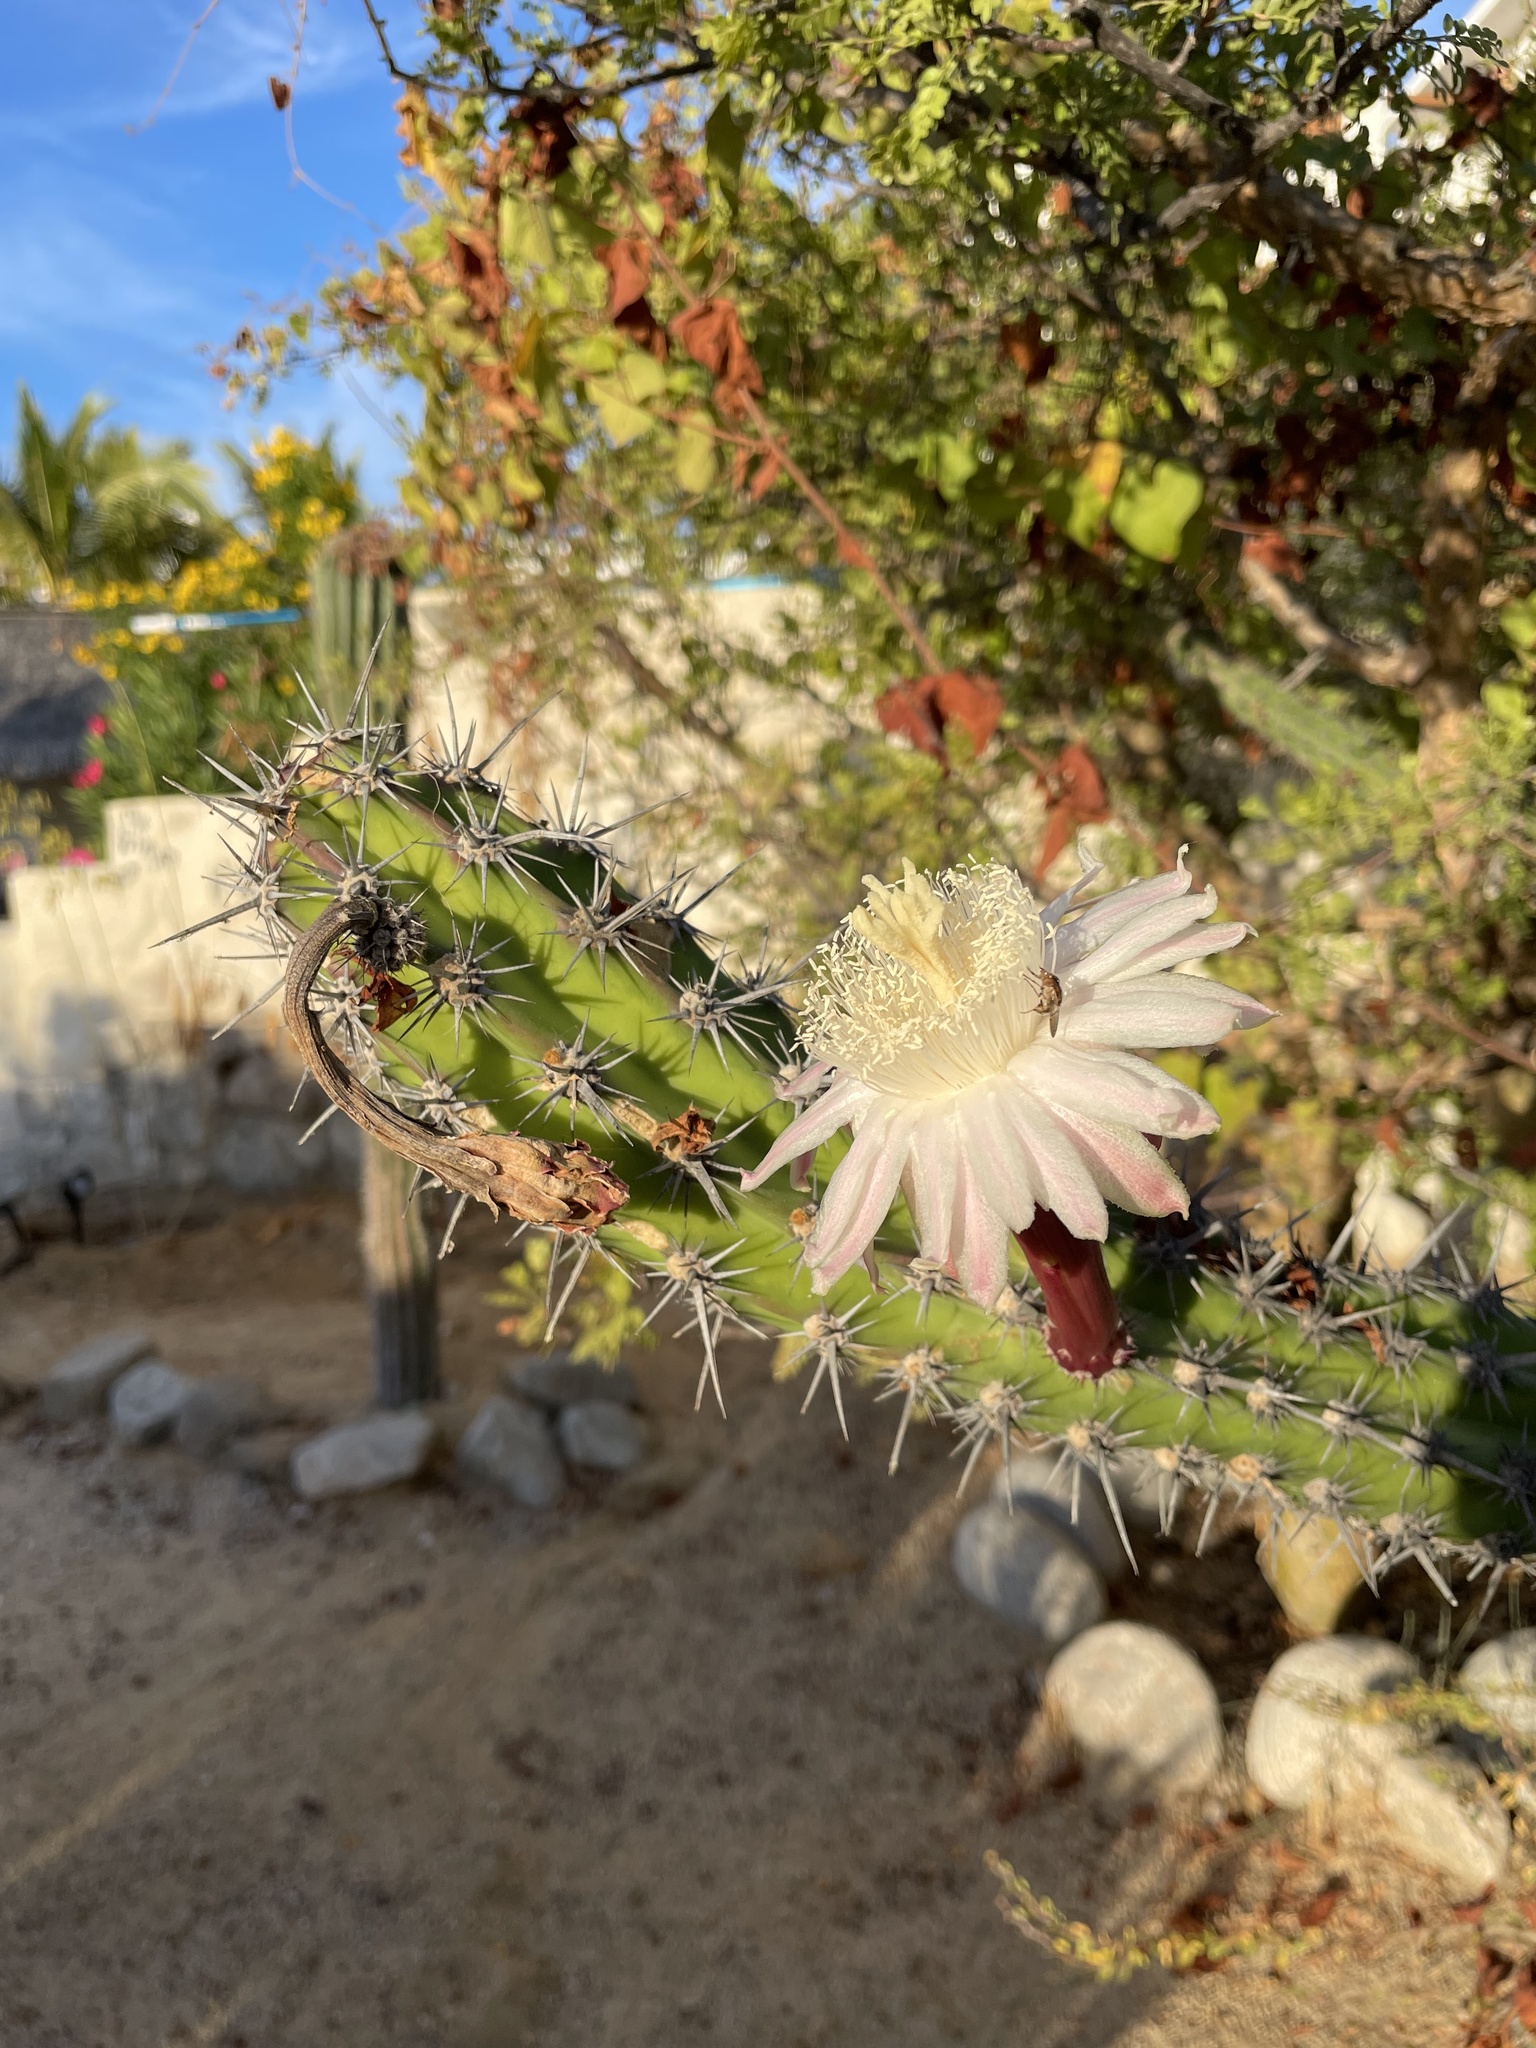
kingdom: Plantae
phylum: Tracheophyta
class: Magnoliopsida
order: Caryophyllales
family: Cactaceae
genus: Stenocereus
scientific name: Stenocereus gummosus
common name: Dagger cactus
